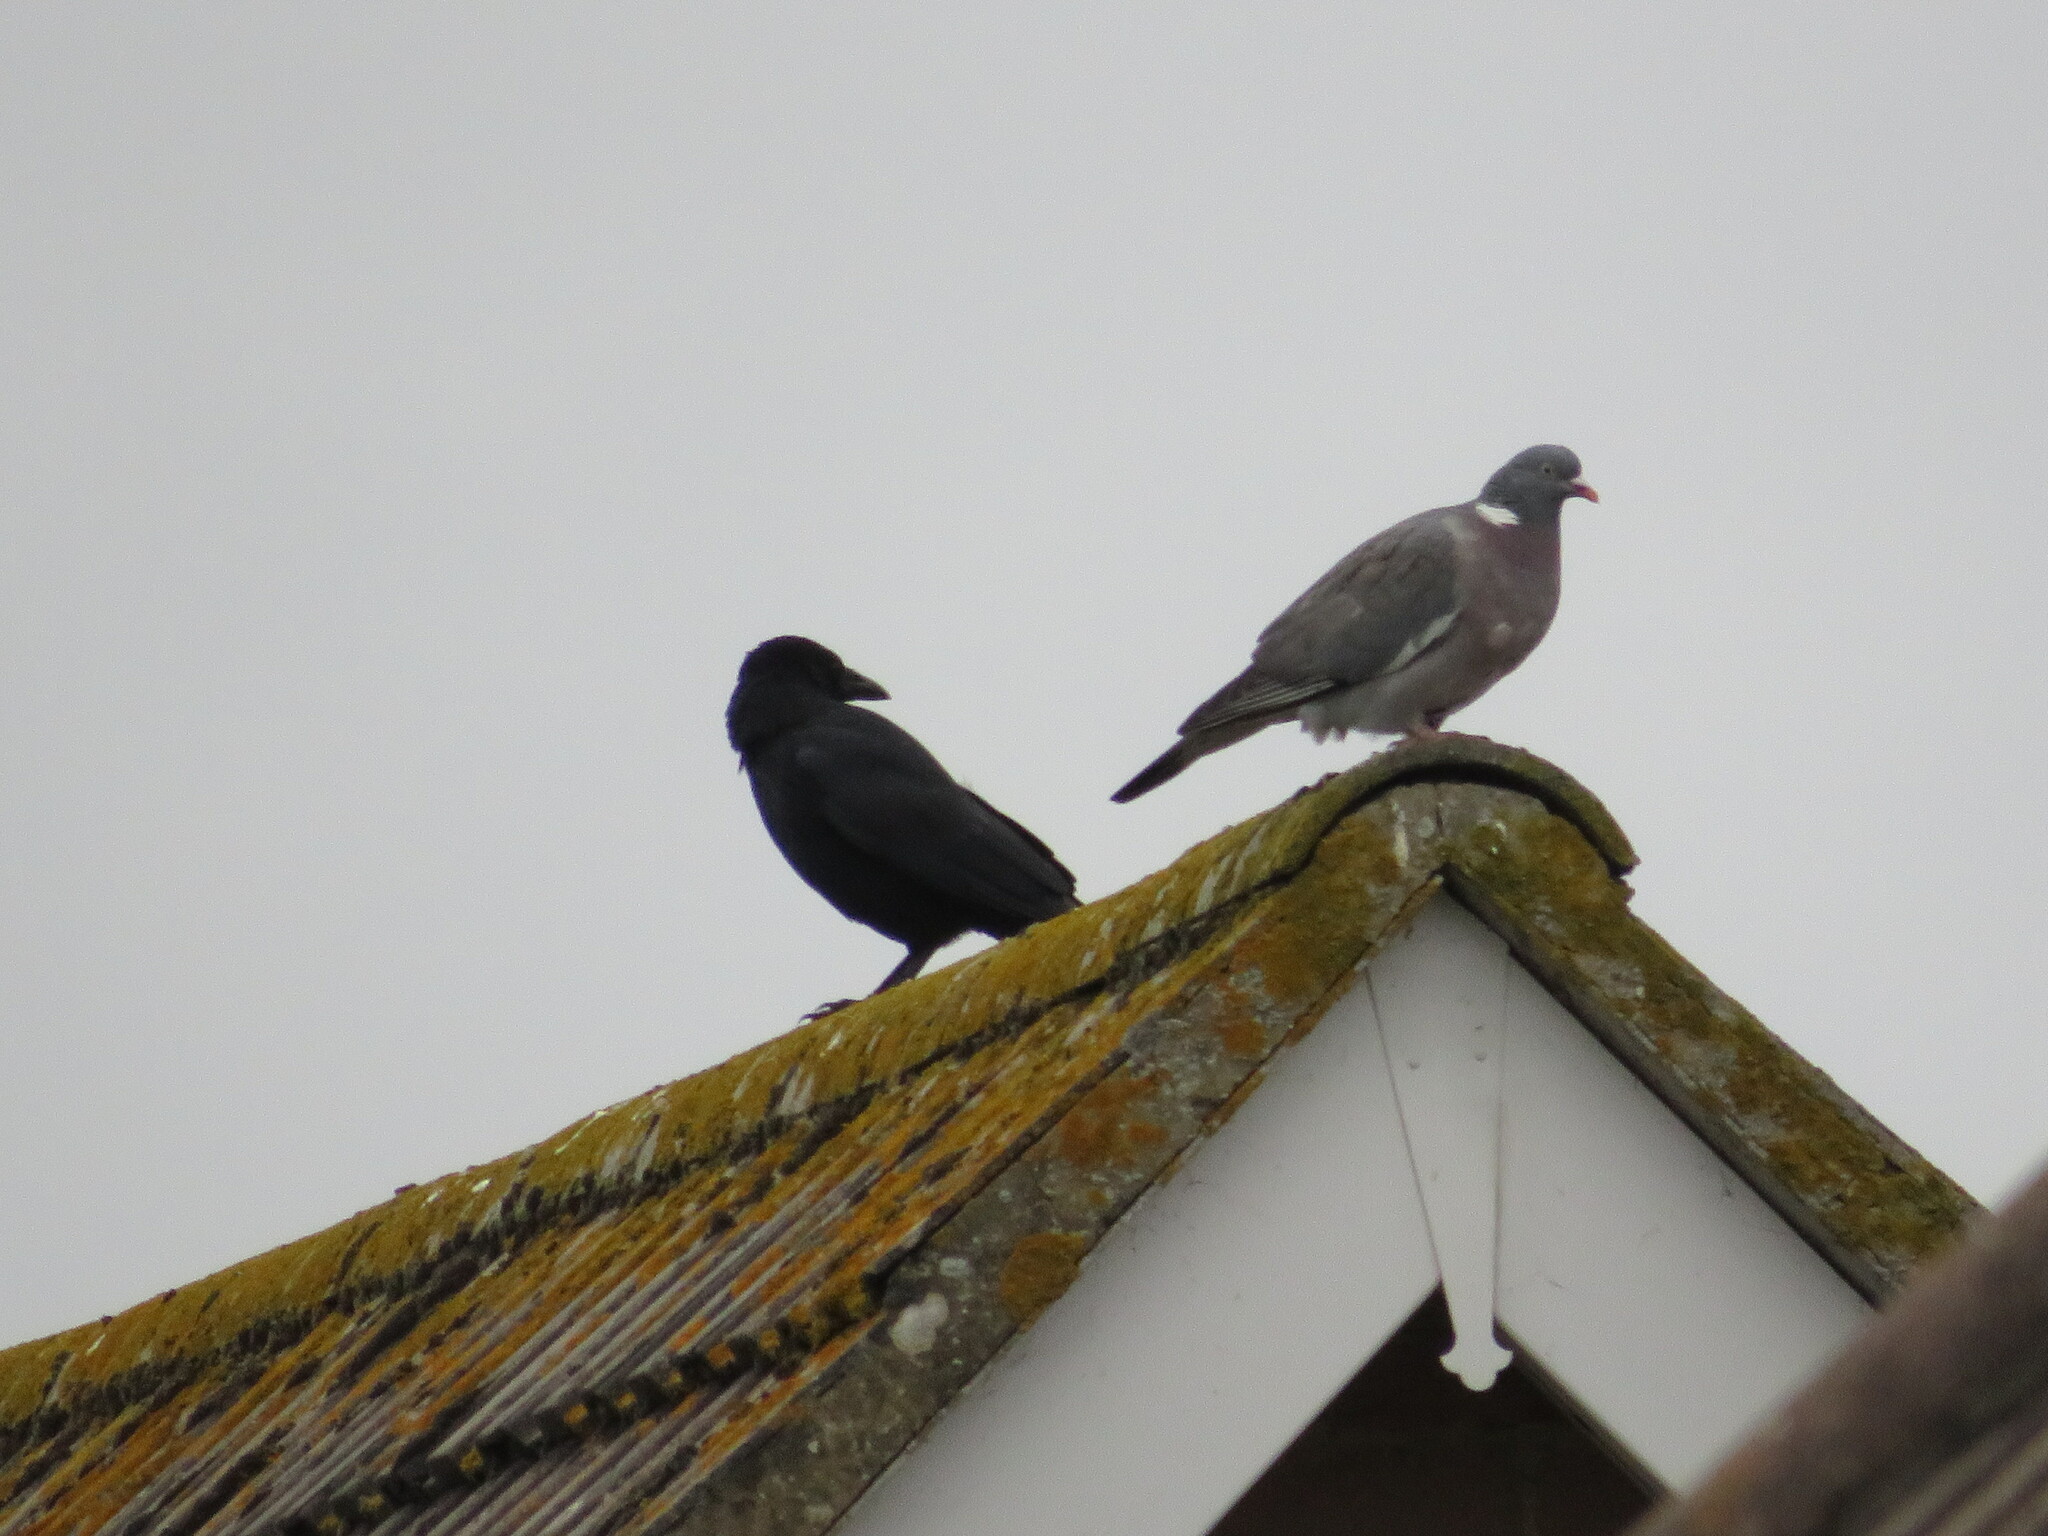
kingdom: Animalia
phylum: Chordata
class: Aves
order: Columbiformes
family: Columbidae
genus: Columba
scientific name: Columba palumbus
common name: Common wood pigeon
